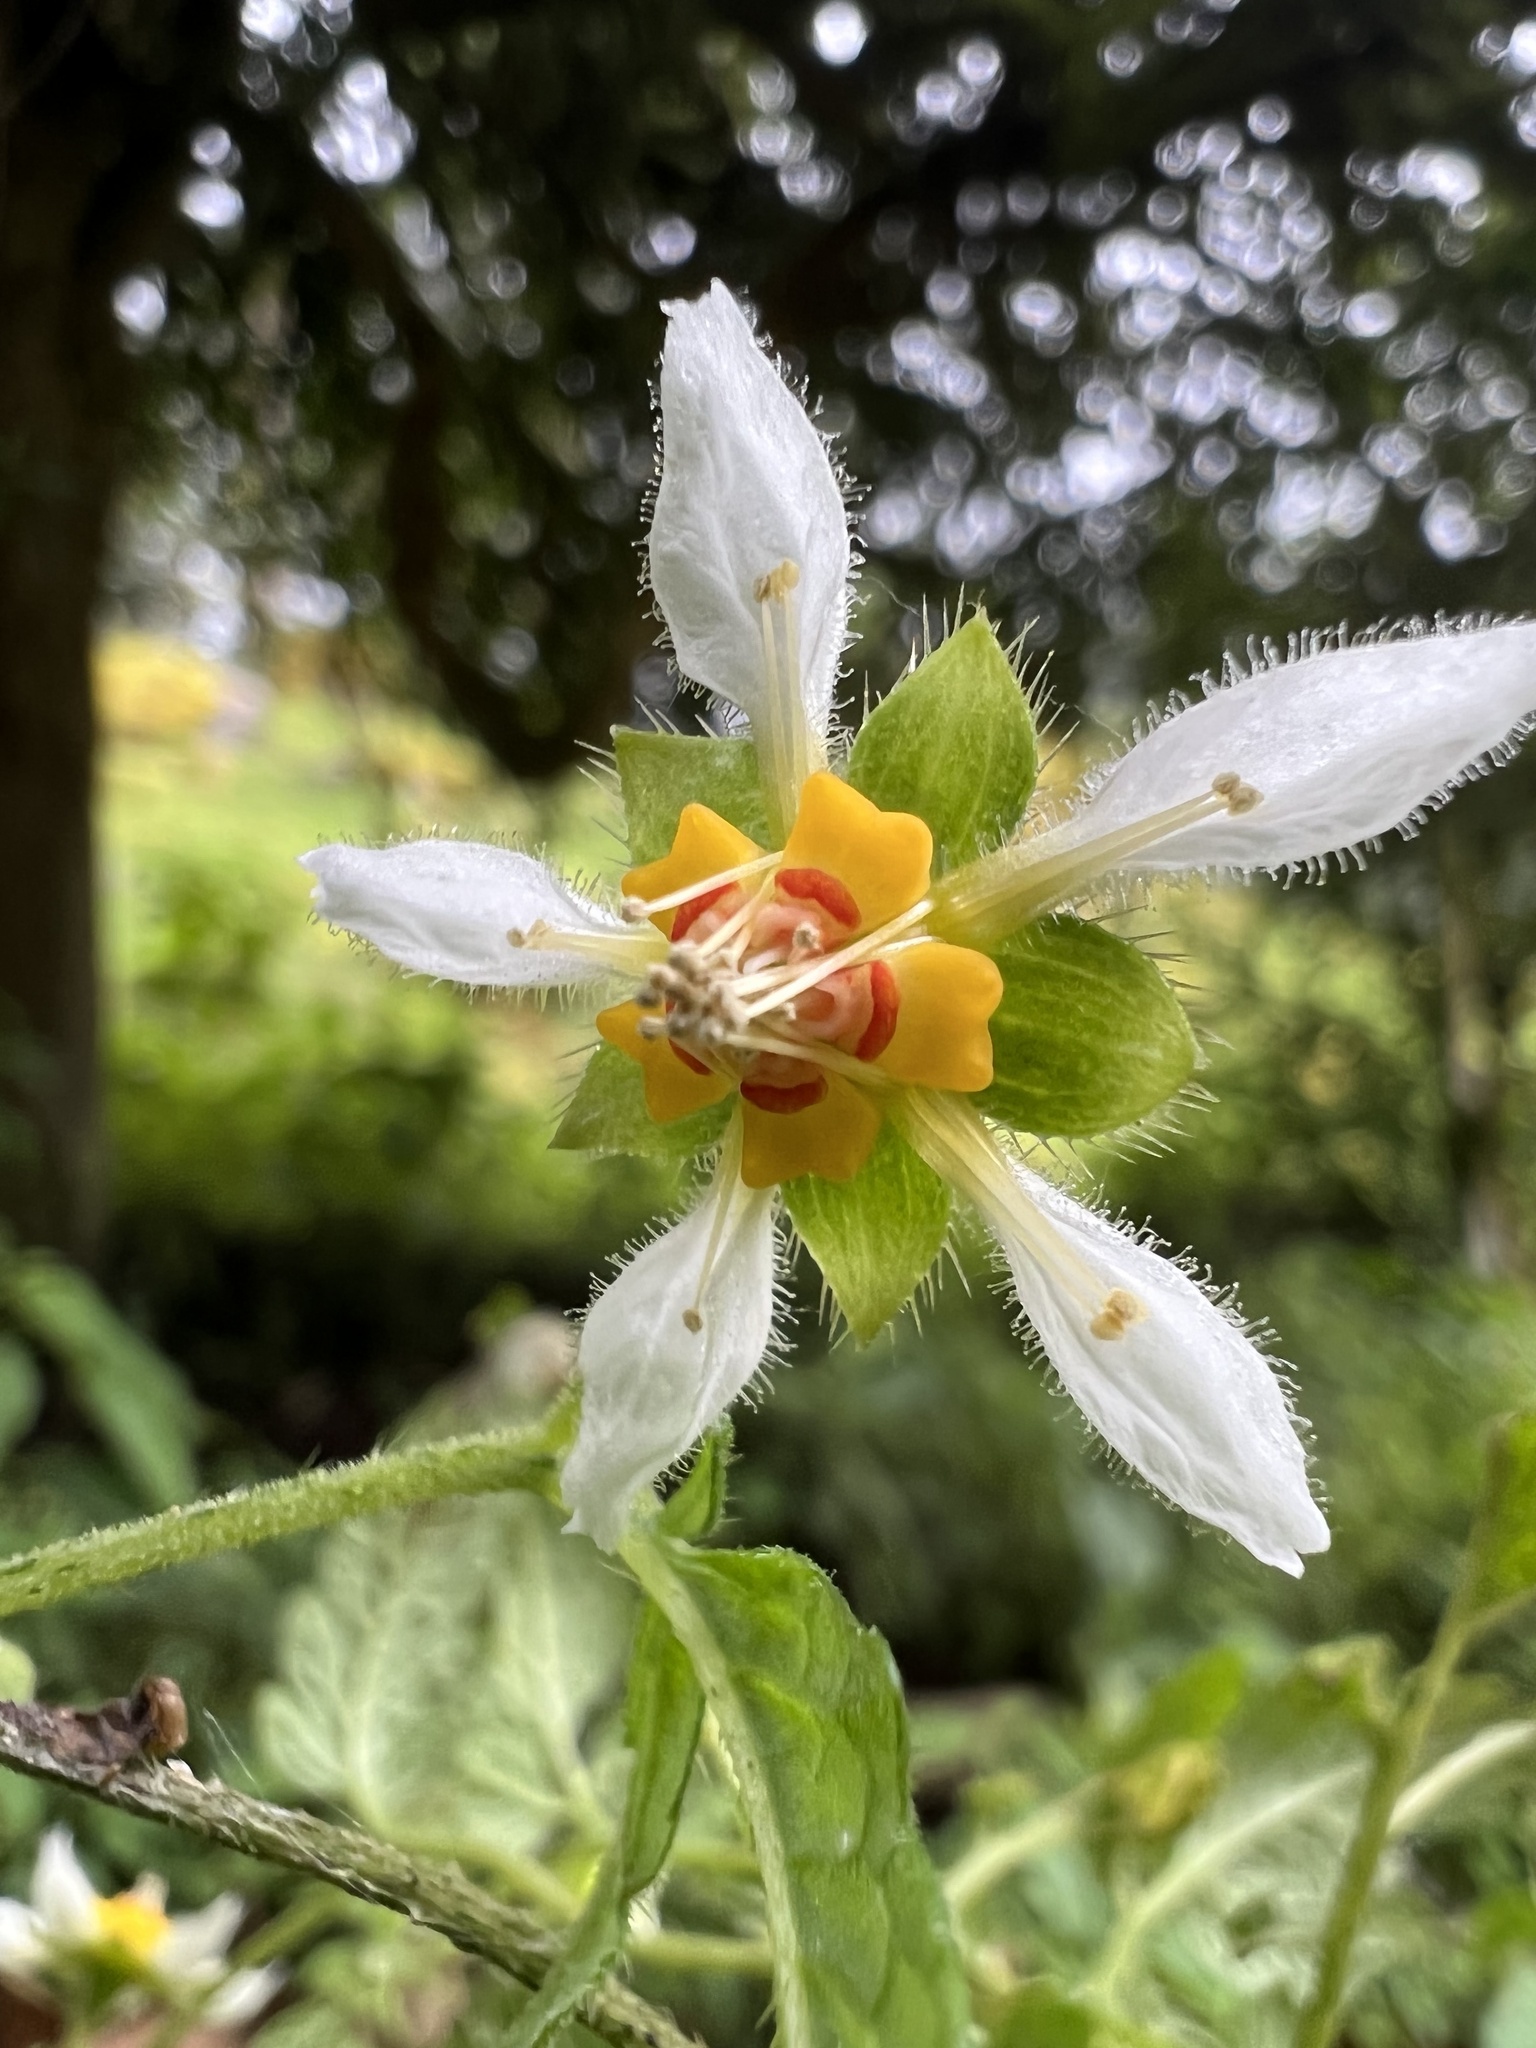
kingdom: Plantae
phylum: Tracheophyta
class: Magnoliopsida
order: Cornales
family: Loasaceae
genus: Nasa
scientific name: Nasa triphylla
